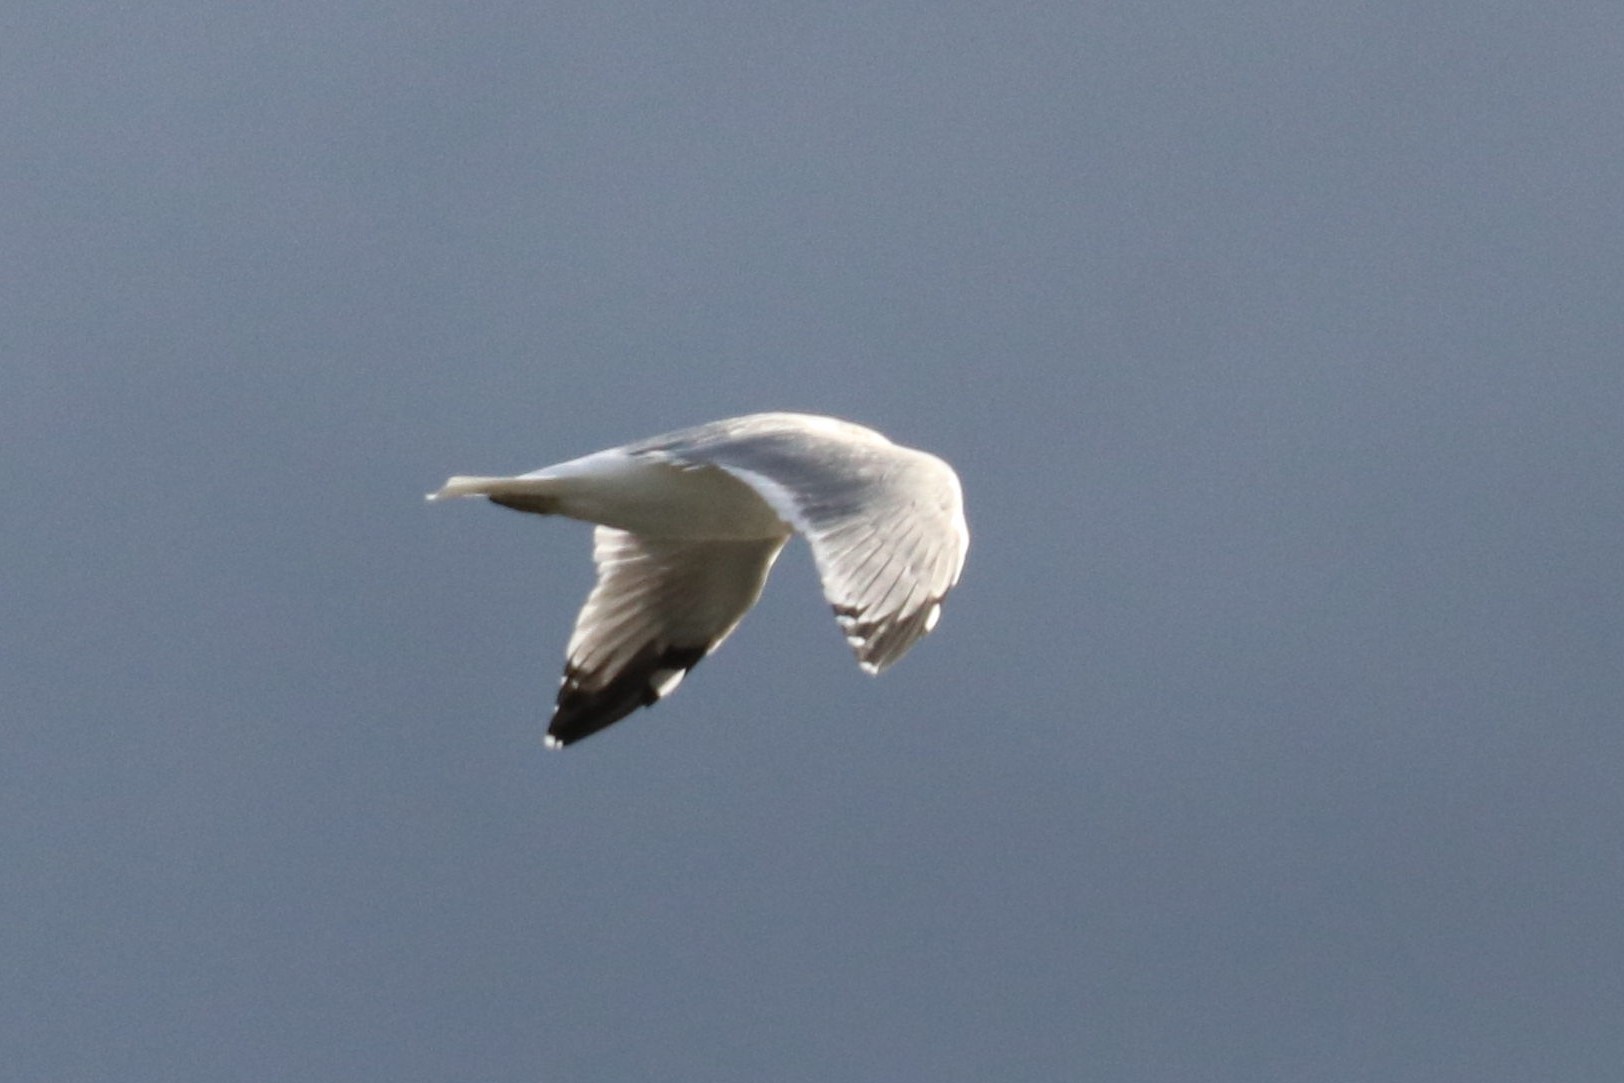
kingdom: Animalia
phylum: Chordata
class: Aves
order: Charadriiformes
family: Laridae
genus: Larus
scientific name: Larus canus
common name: Mew gull
